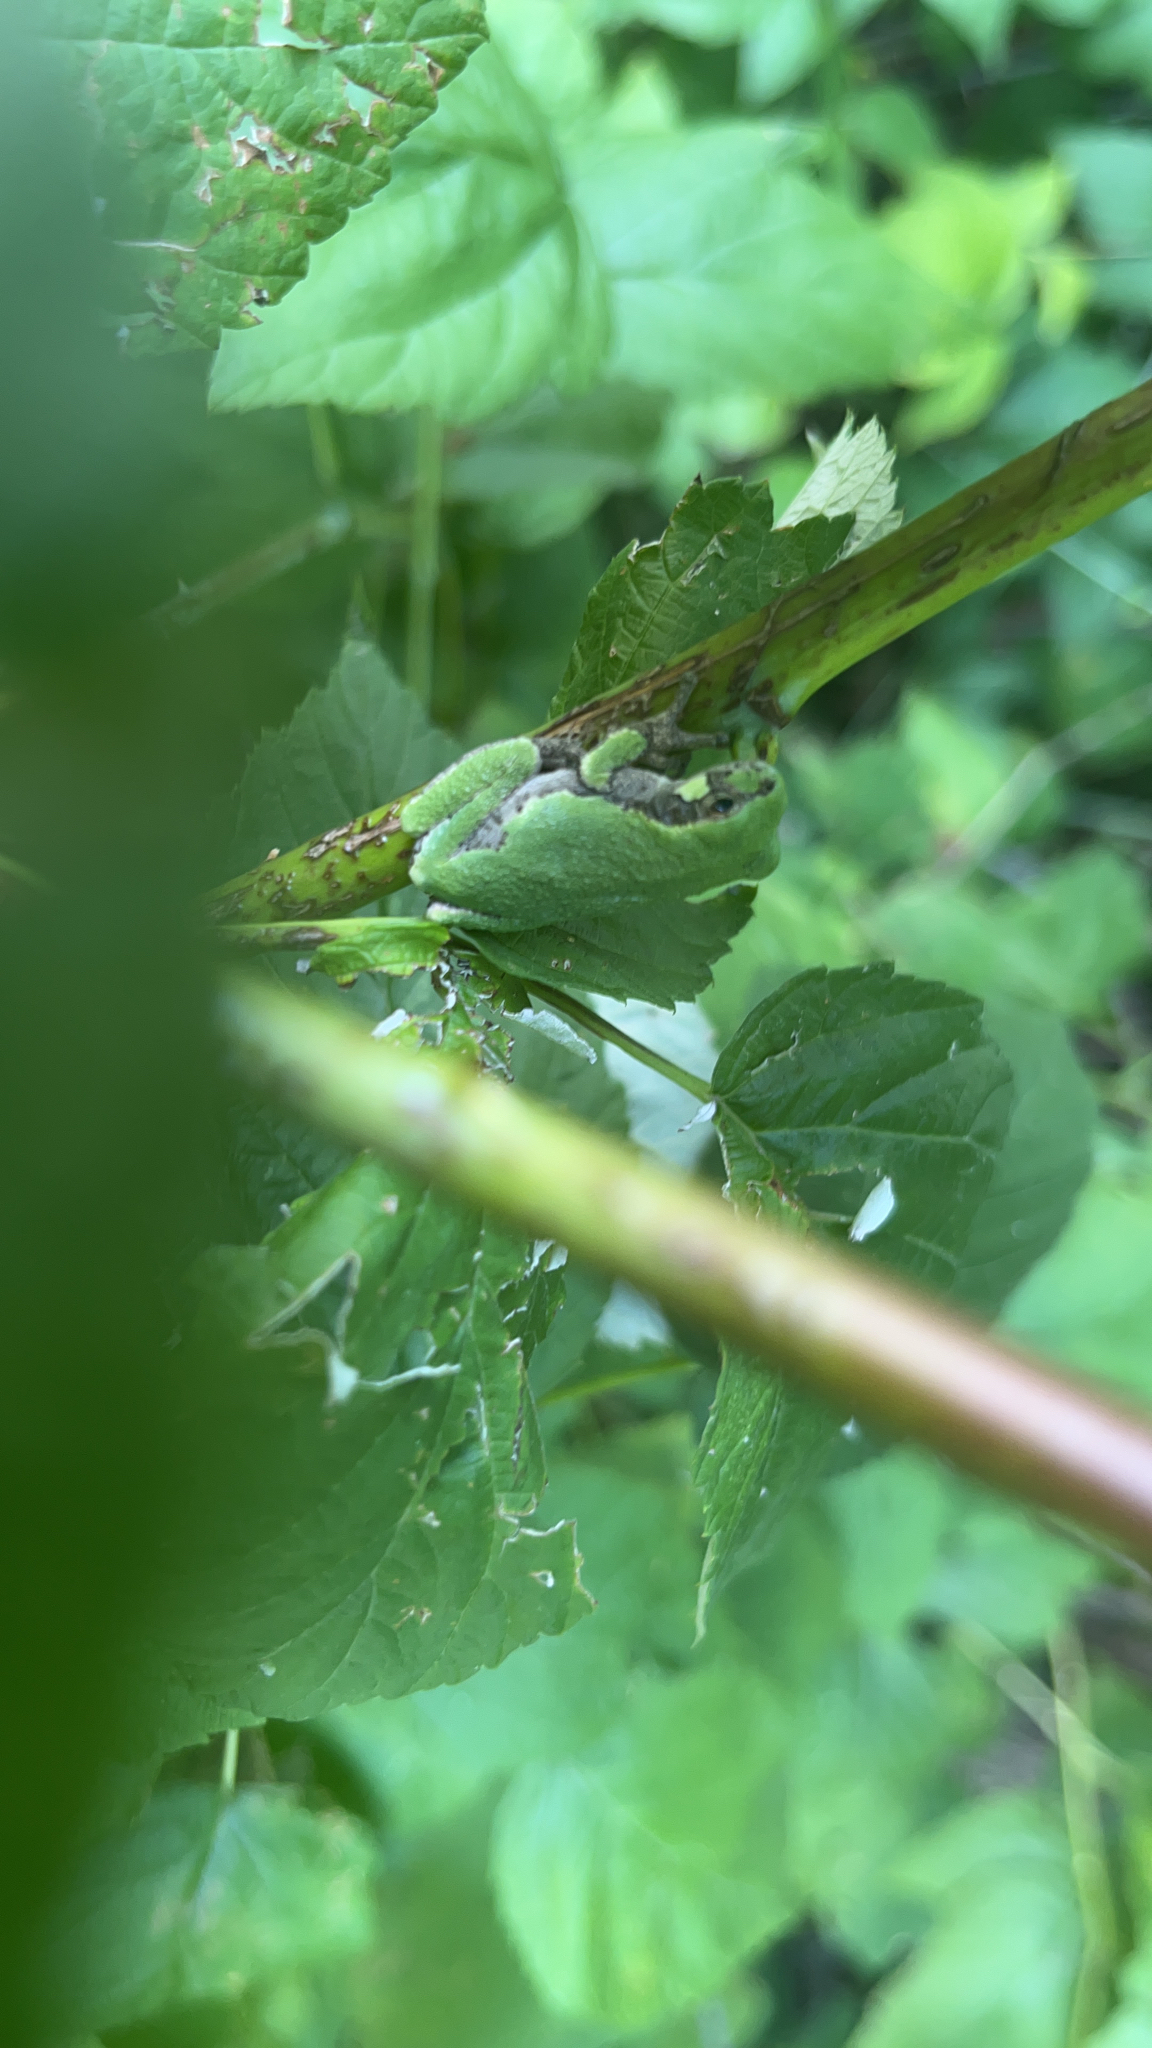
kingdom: Animalia
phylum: Chordata
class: Amphibia
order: Anura
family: Hylidae
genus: Hyla
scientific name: Hyla
